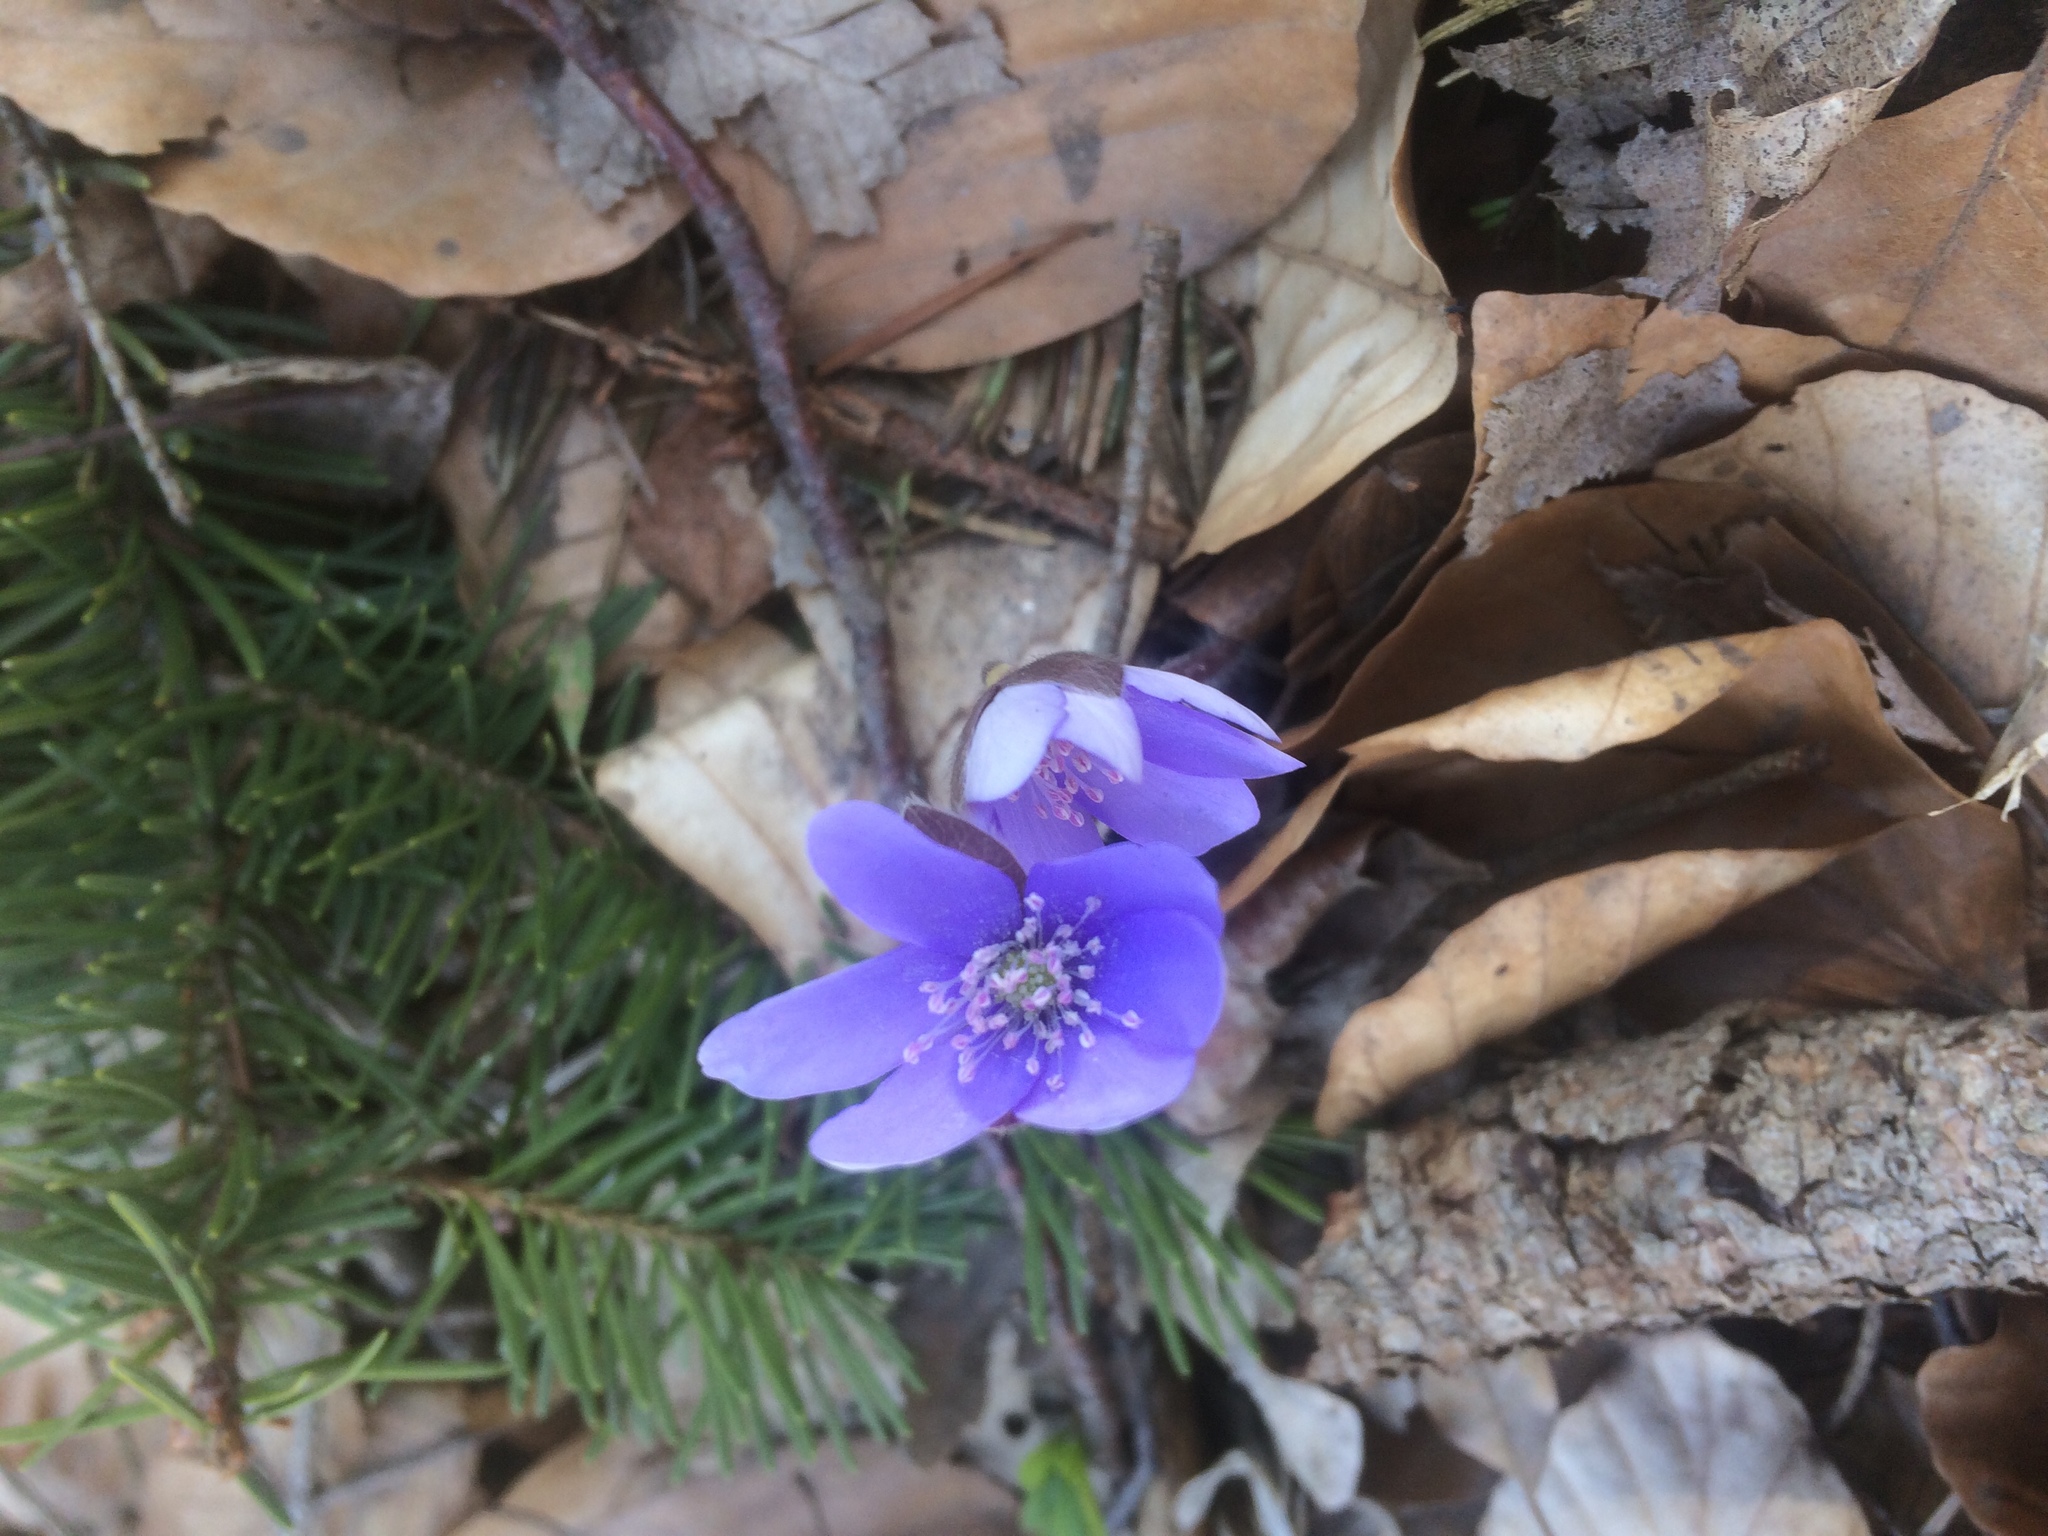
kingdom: Plantae
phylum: Tracheophyta
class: Magnoliopsida
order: Ranunculales
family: Ranunculaceae
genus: Hepatica
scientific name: Hepatica nobilis
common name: Liverleaf
